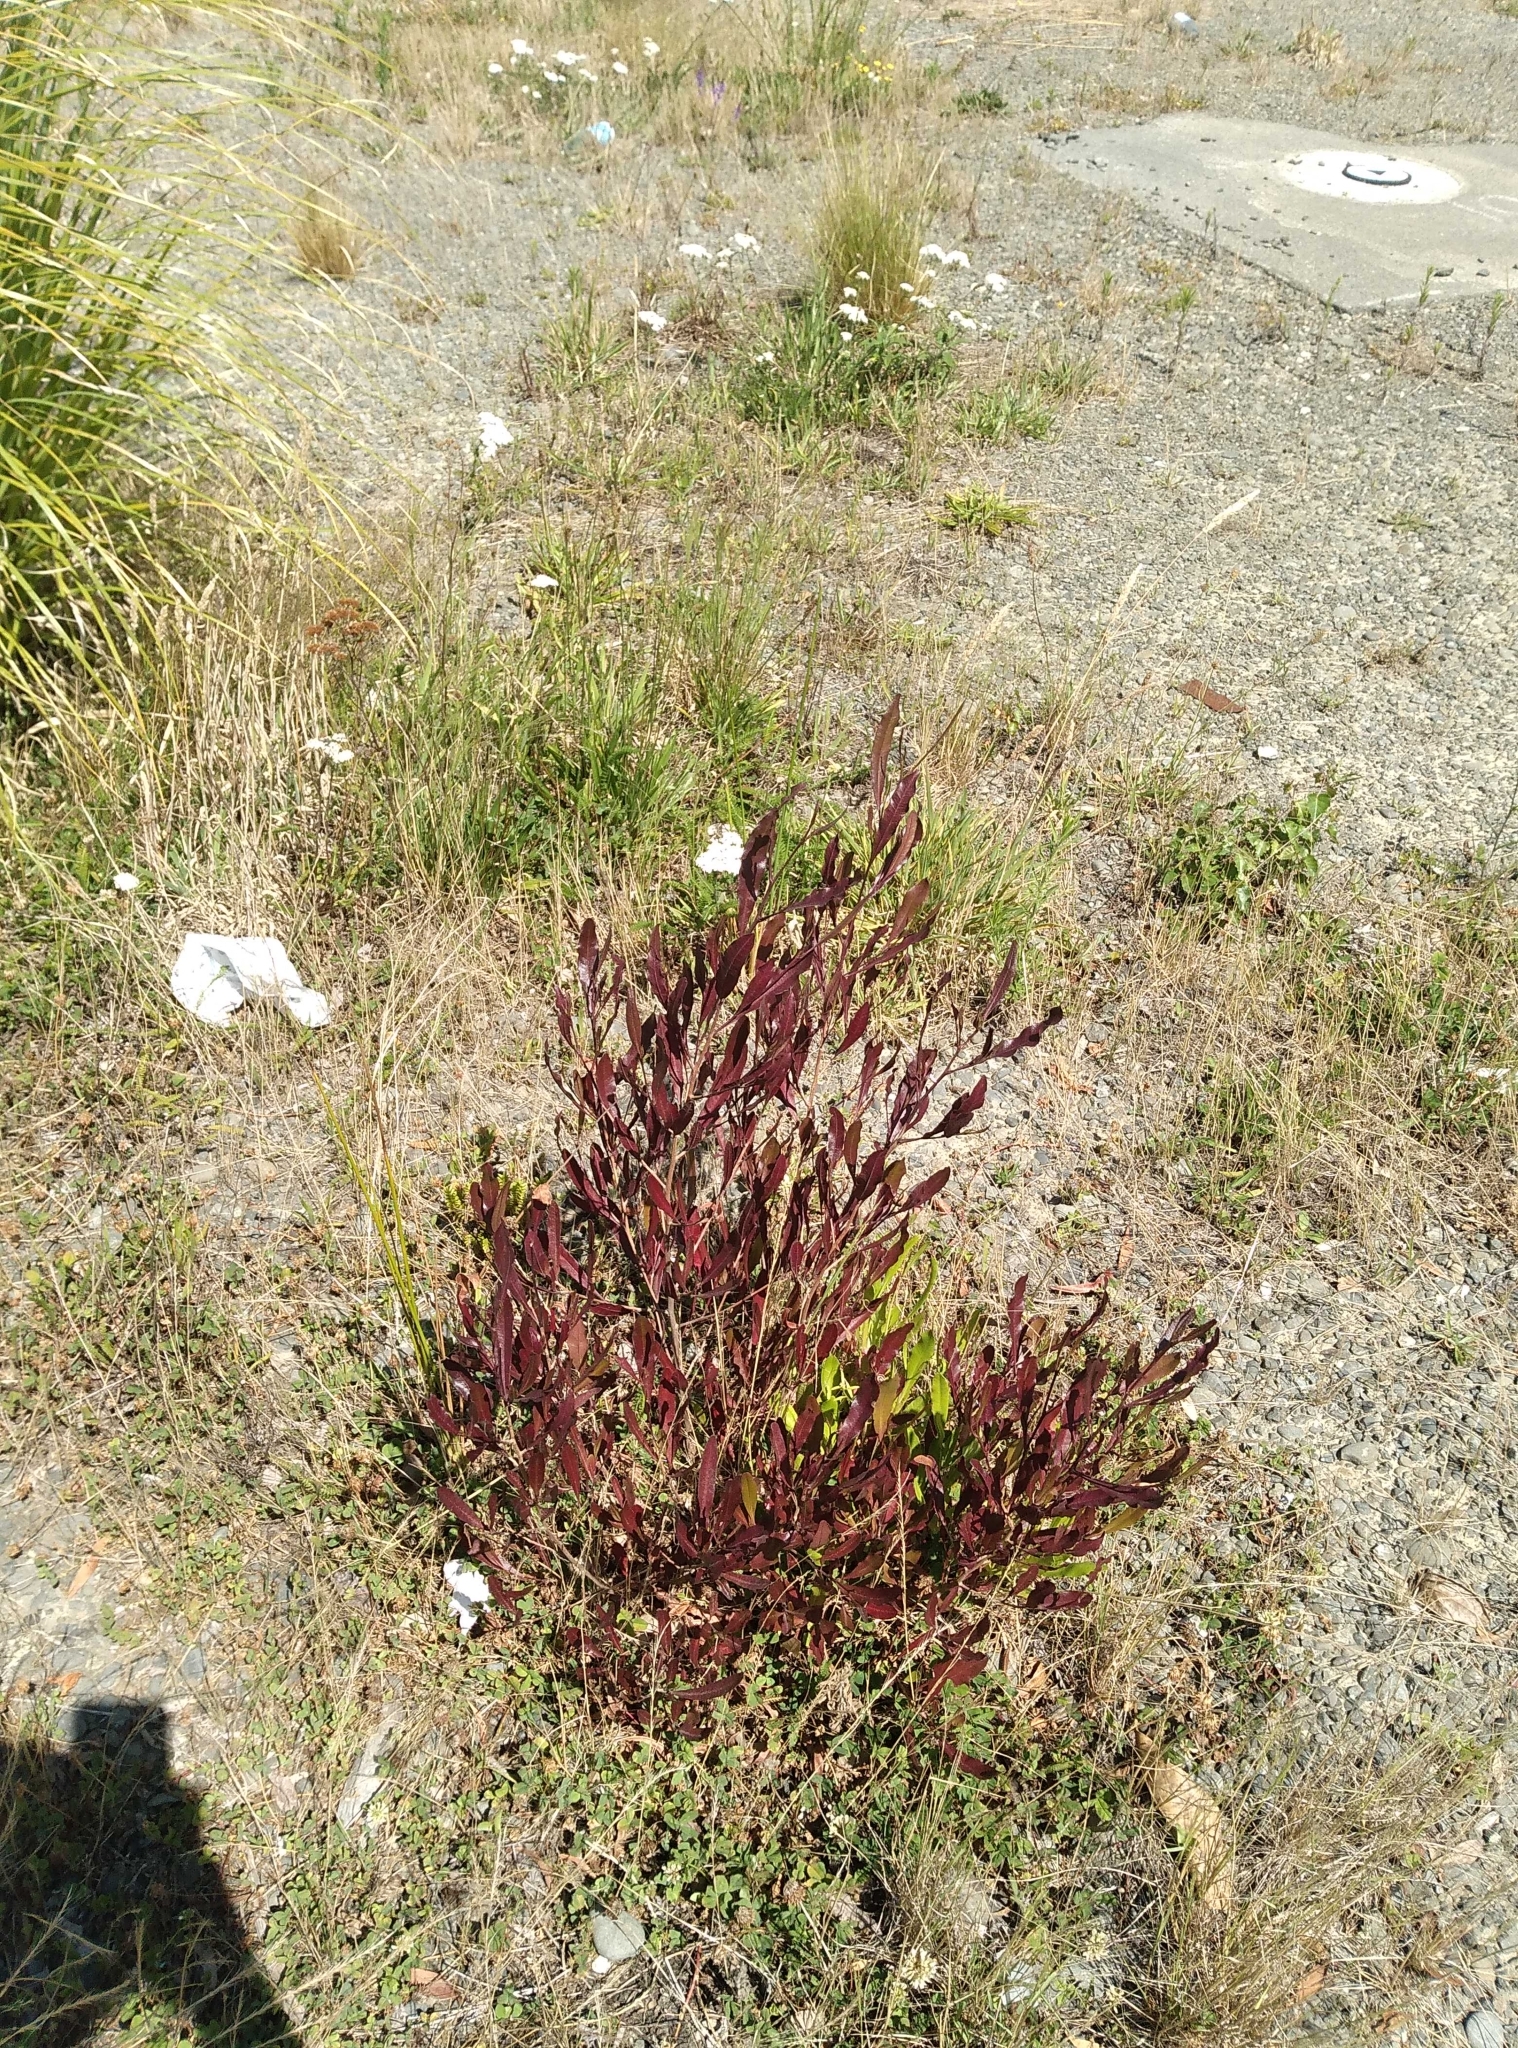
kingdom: Plantae
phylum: Tracheophyta
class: Magnoliopsida
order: Sapindales
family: Sapindaceae
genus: Dodonaea
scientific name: Dodonaea viscosa
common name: Hopbush
